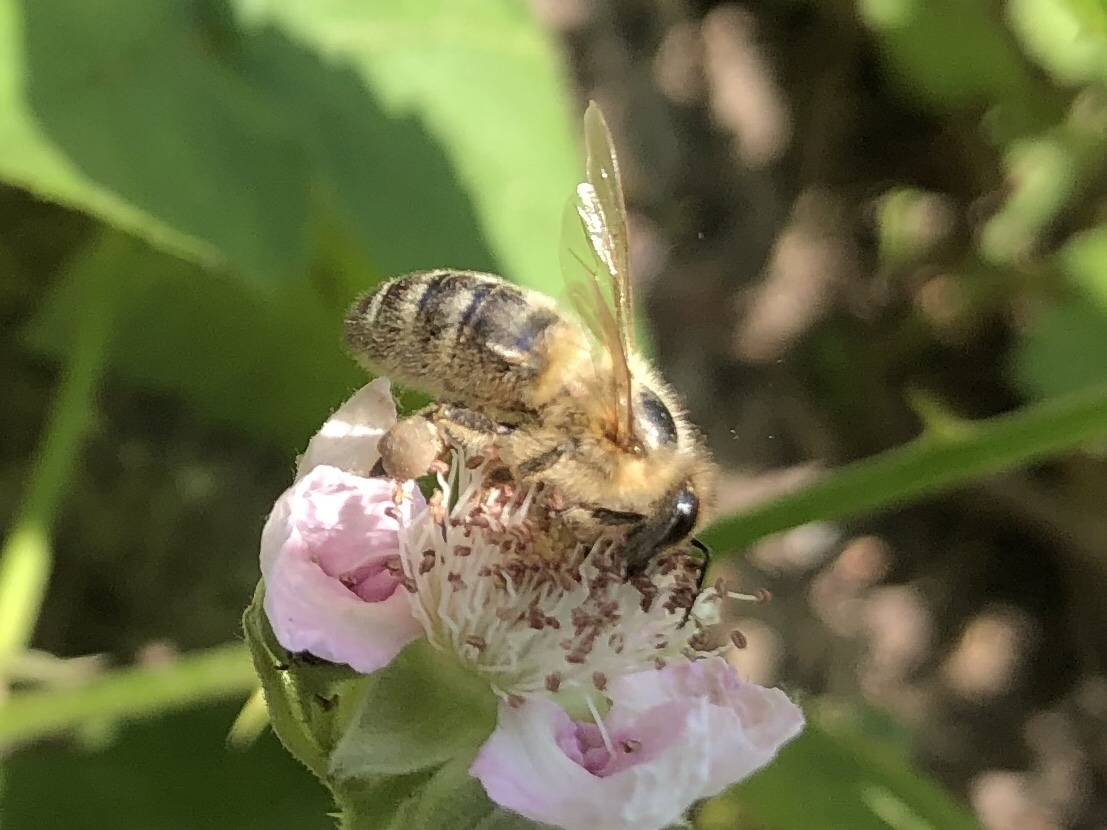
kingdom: Animalia
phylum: Arthropoda
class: Insecta
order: Hymenoptera
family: Apidae
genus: Apis
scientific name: Apis mellifera
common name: Honey bee
